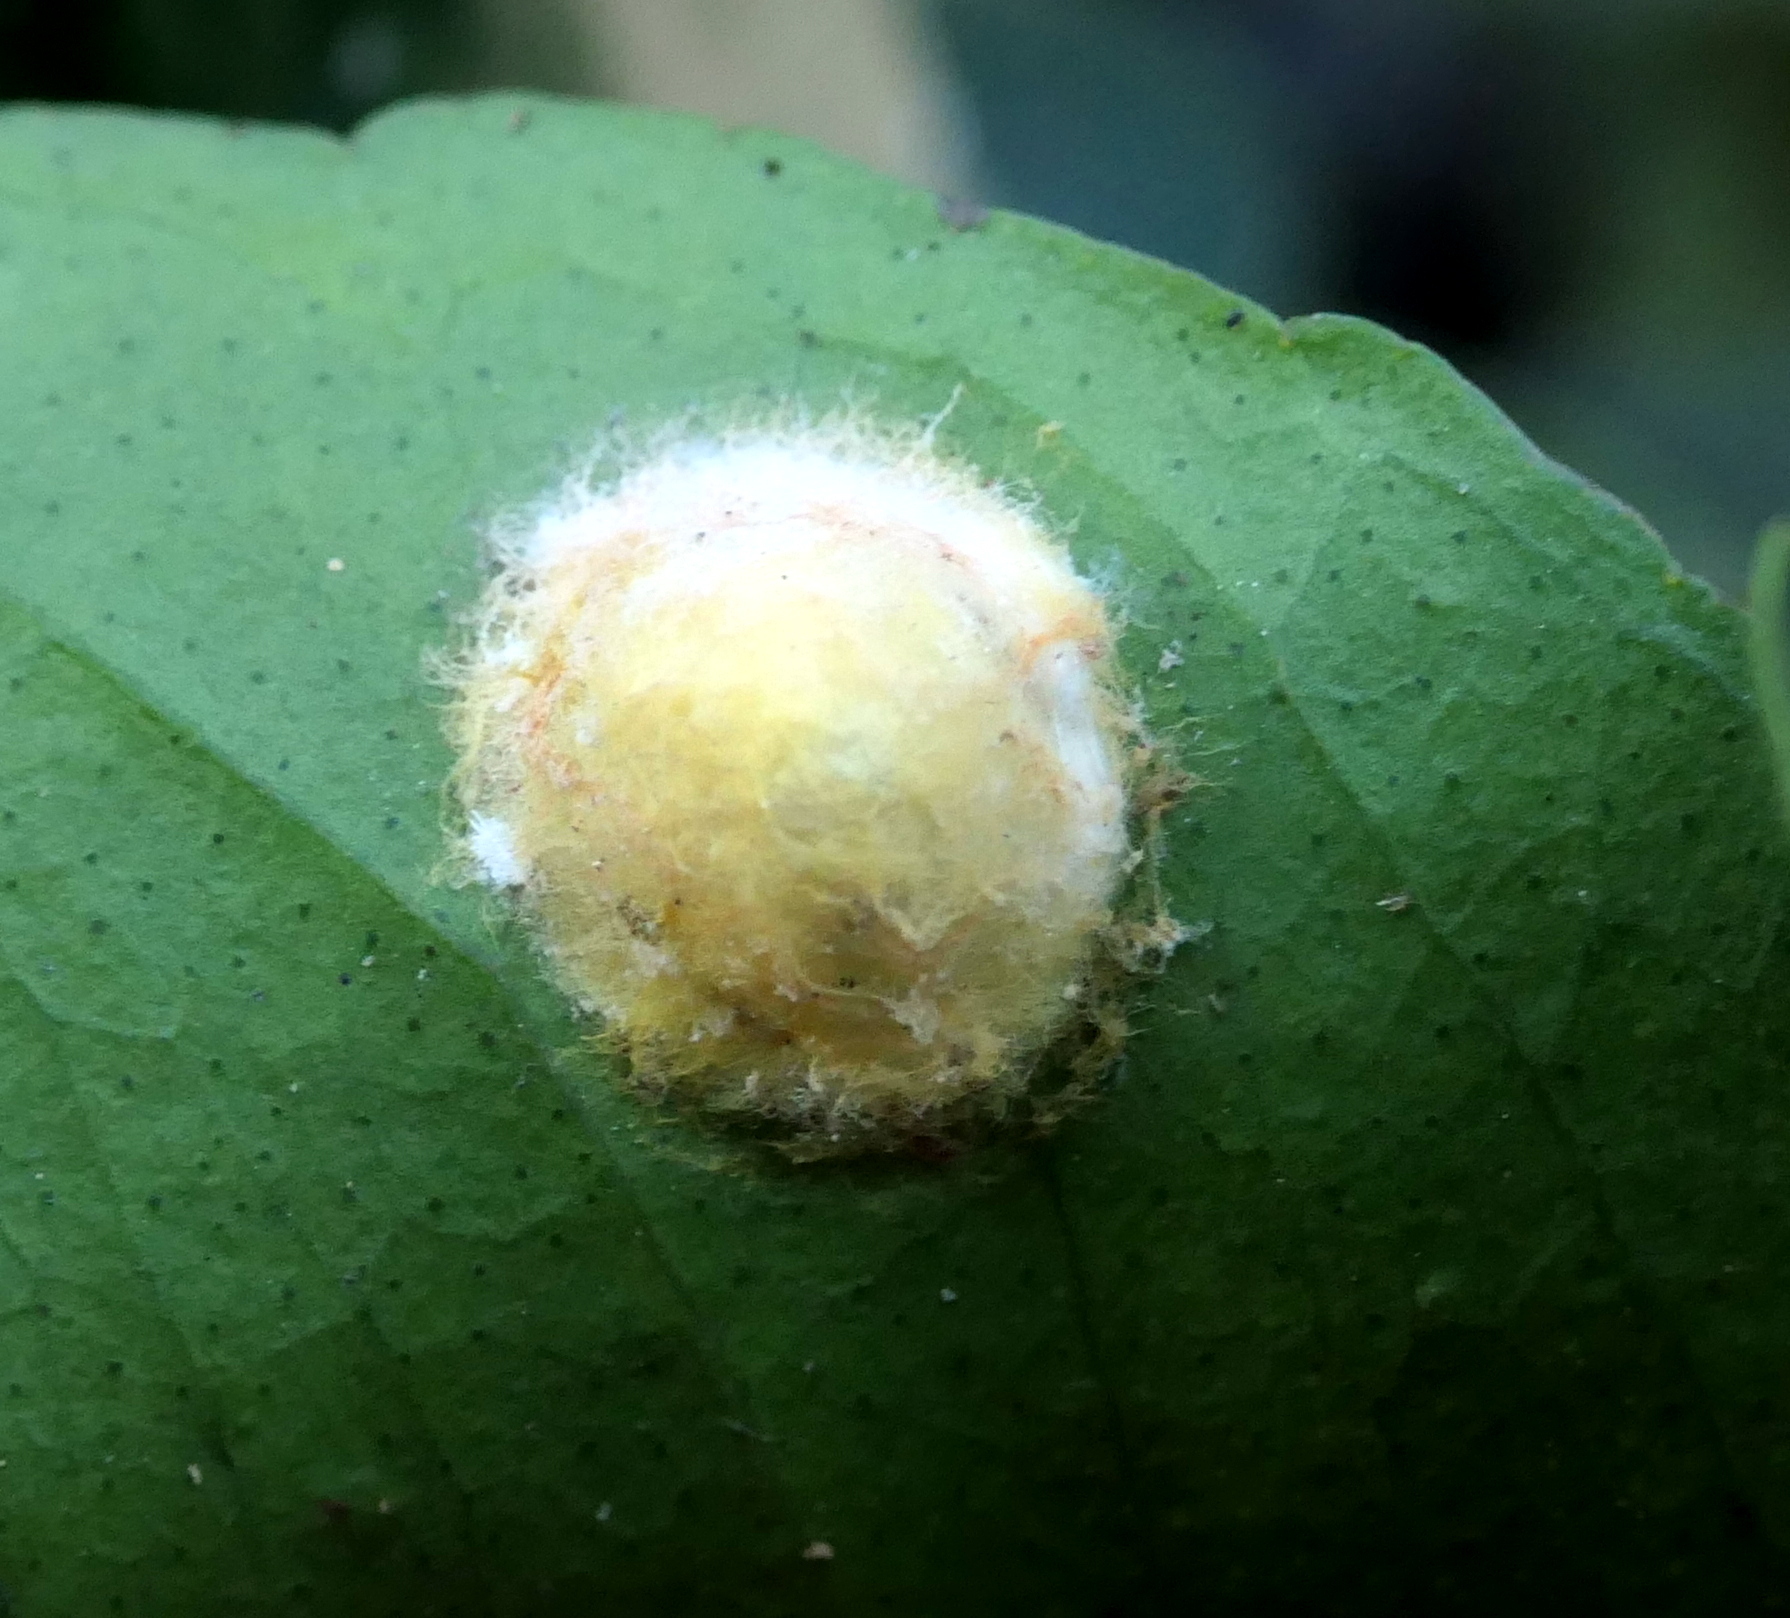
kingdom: Animalia
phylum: Arthropoda
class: Arachnida
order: Araneae
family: Araneidae
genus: Alpaida
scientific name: Alpaida bicornuta
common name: Orb weavers
